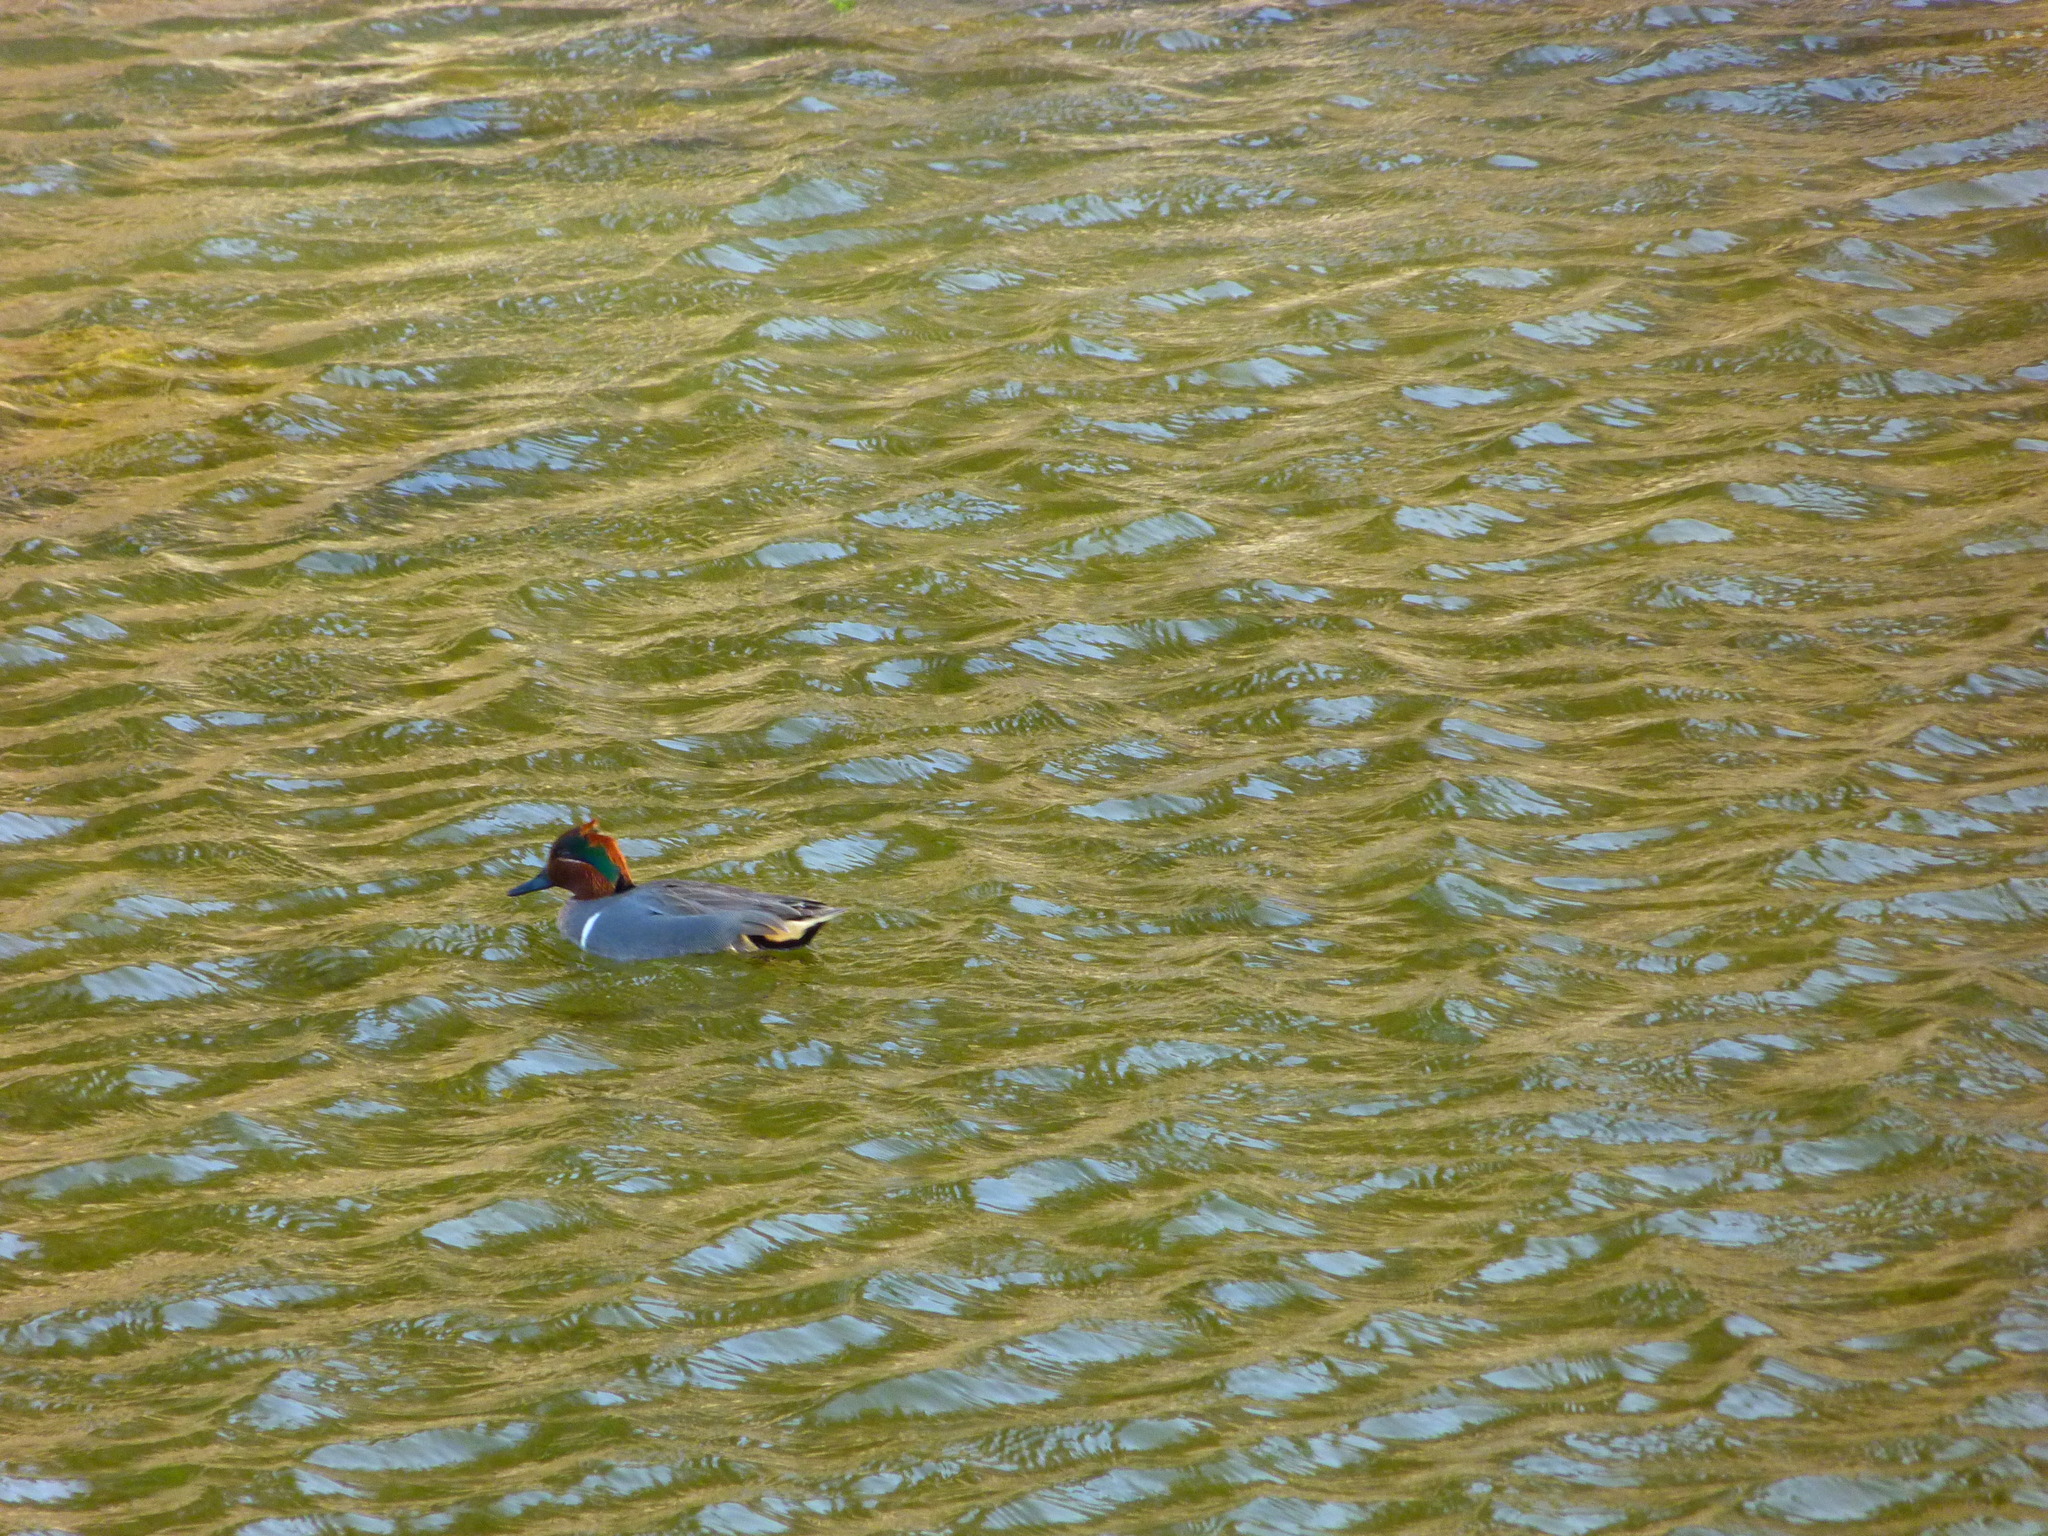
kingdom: Animalia
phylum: Chordata
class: Aves
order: Anseriformes
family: Anatidae
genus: Anas
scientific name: Anas carolinensis
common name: Green-winged teal
